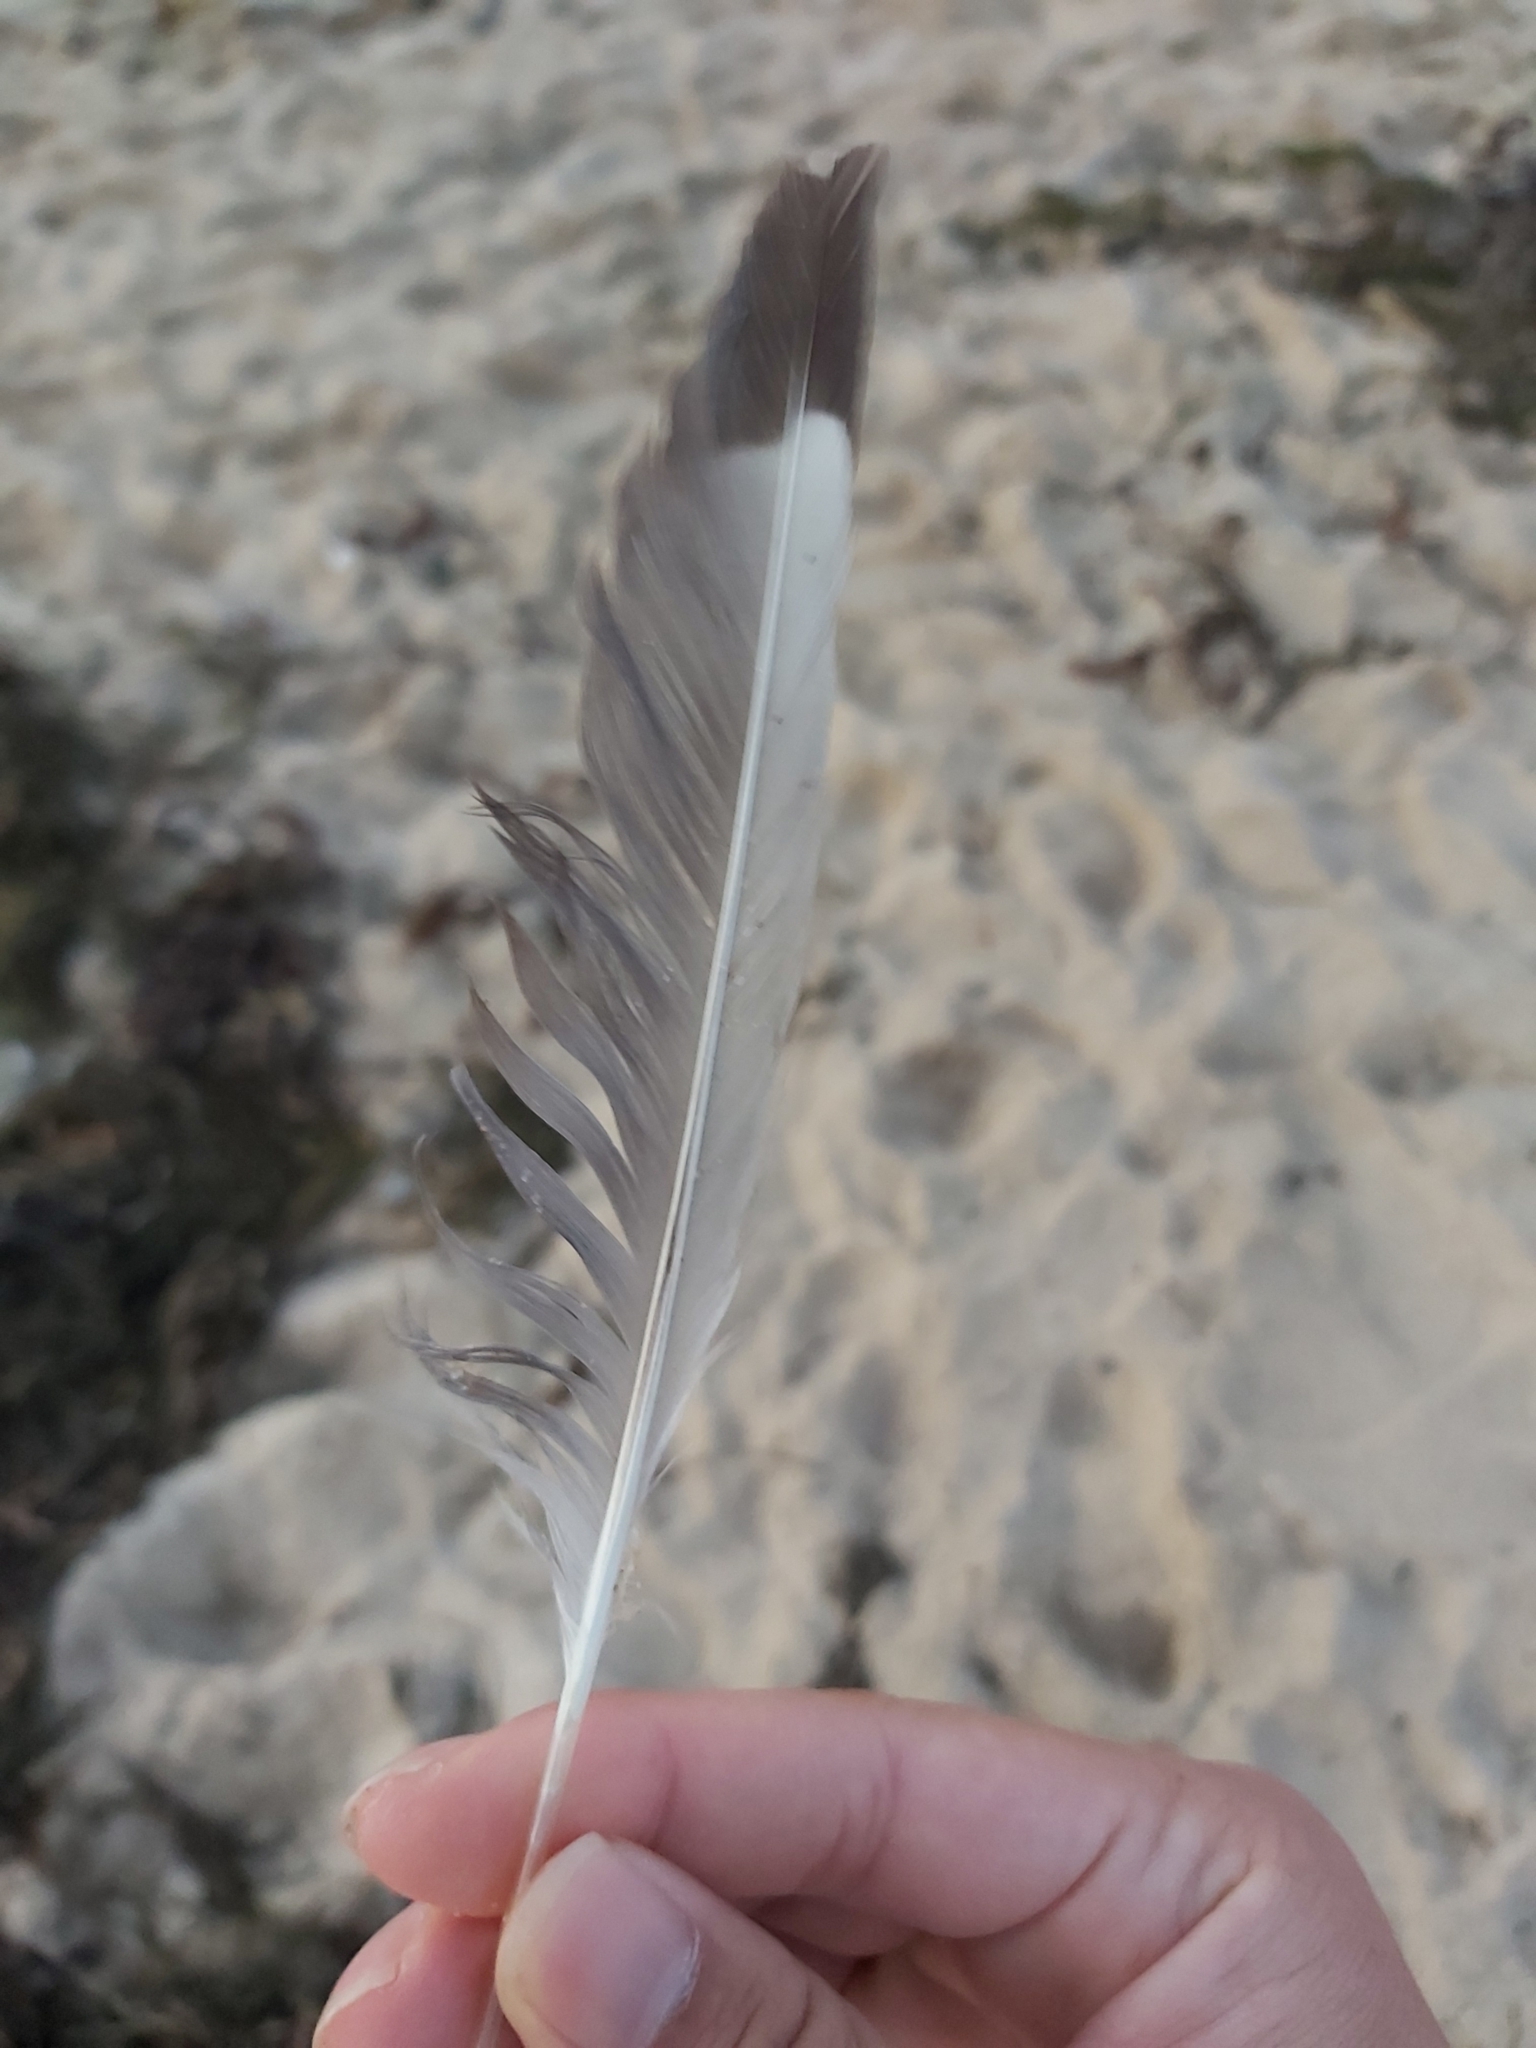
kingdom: Animalia
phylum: Chordata
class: Aves
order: Charadriiformes
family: Laridae
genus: Chroicocephalus
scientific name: Chroicocephalus novaehollandiae
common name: Silver gull
